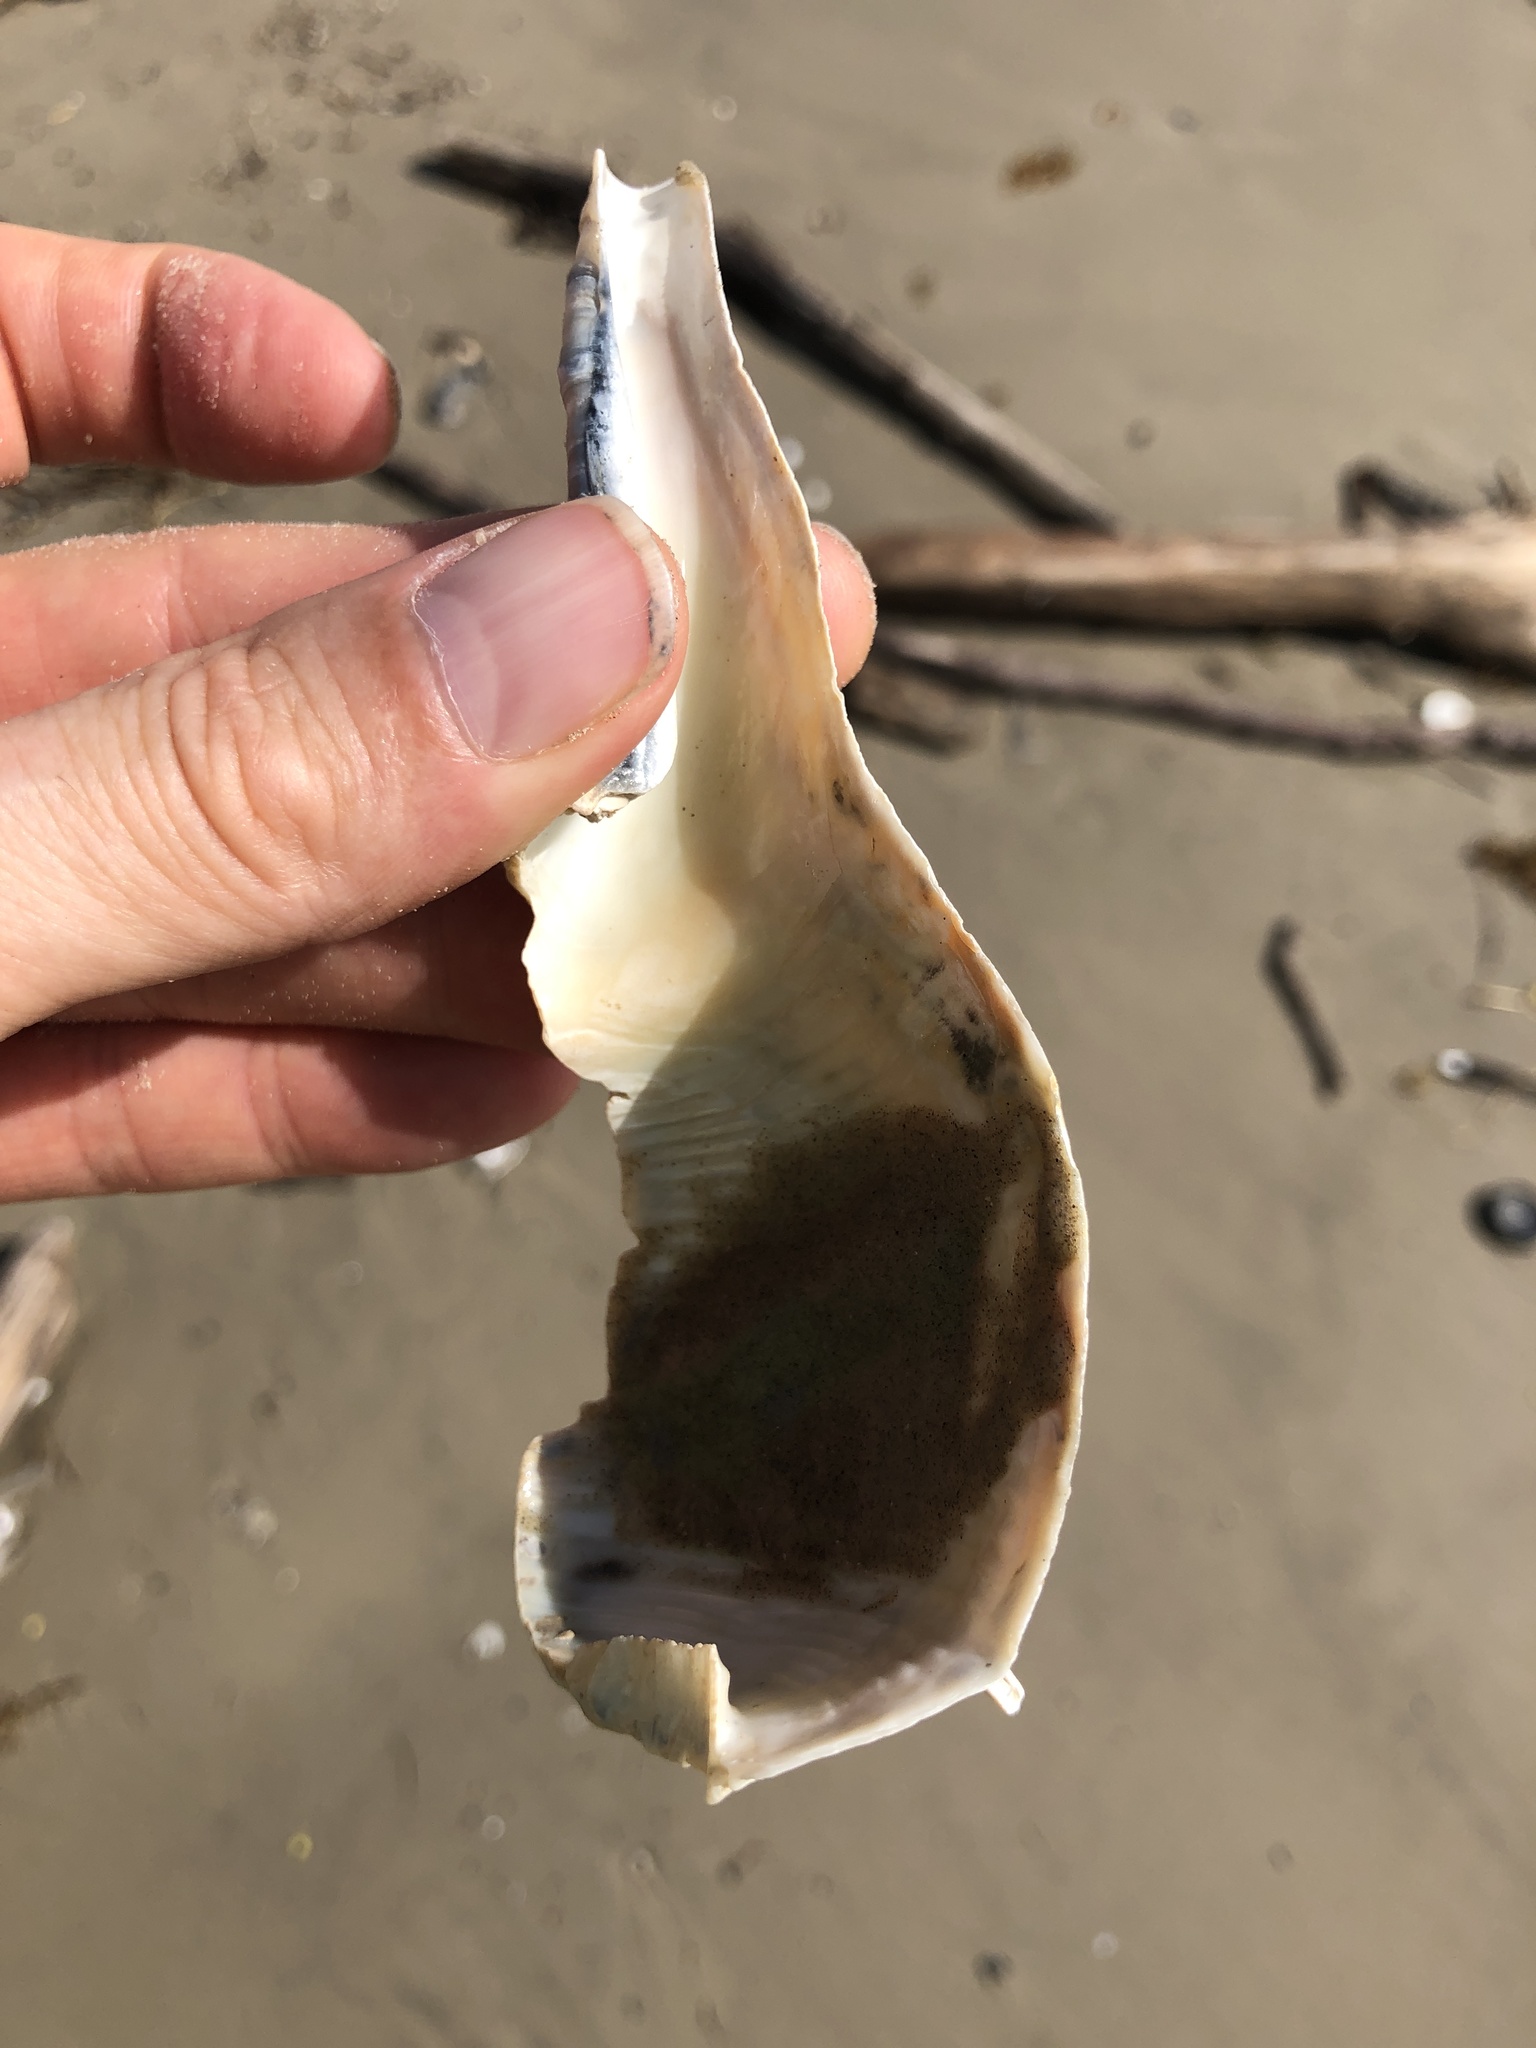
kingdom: Animalia
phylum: Mollusca
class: Gastropoda
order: Neogastropoda
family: Busyconidae
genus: Sinistrofulgur
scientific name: Sinistrofulgur pulleyi
